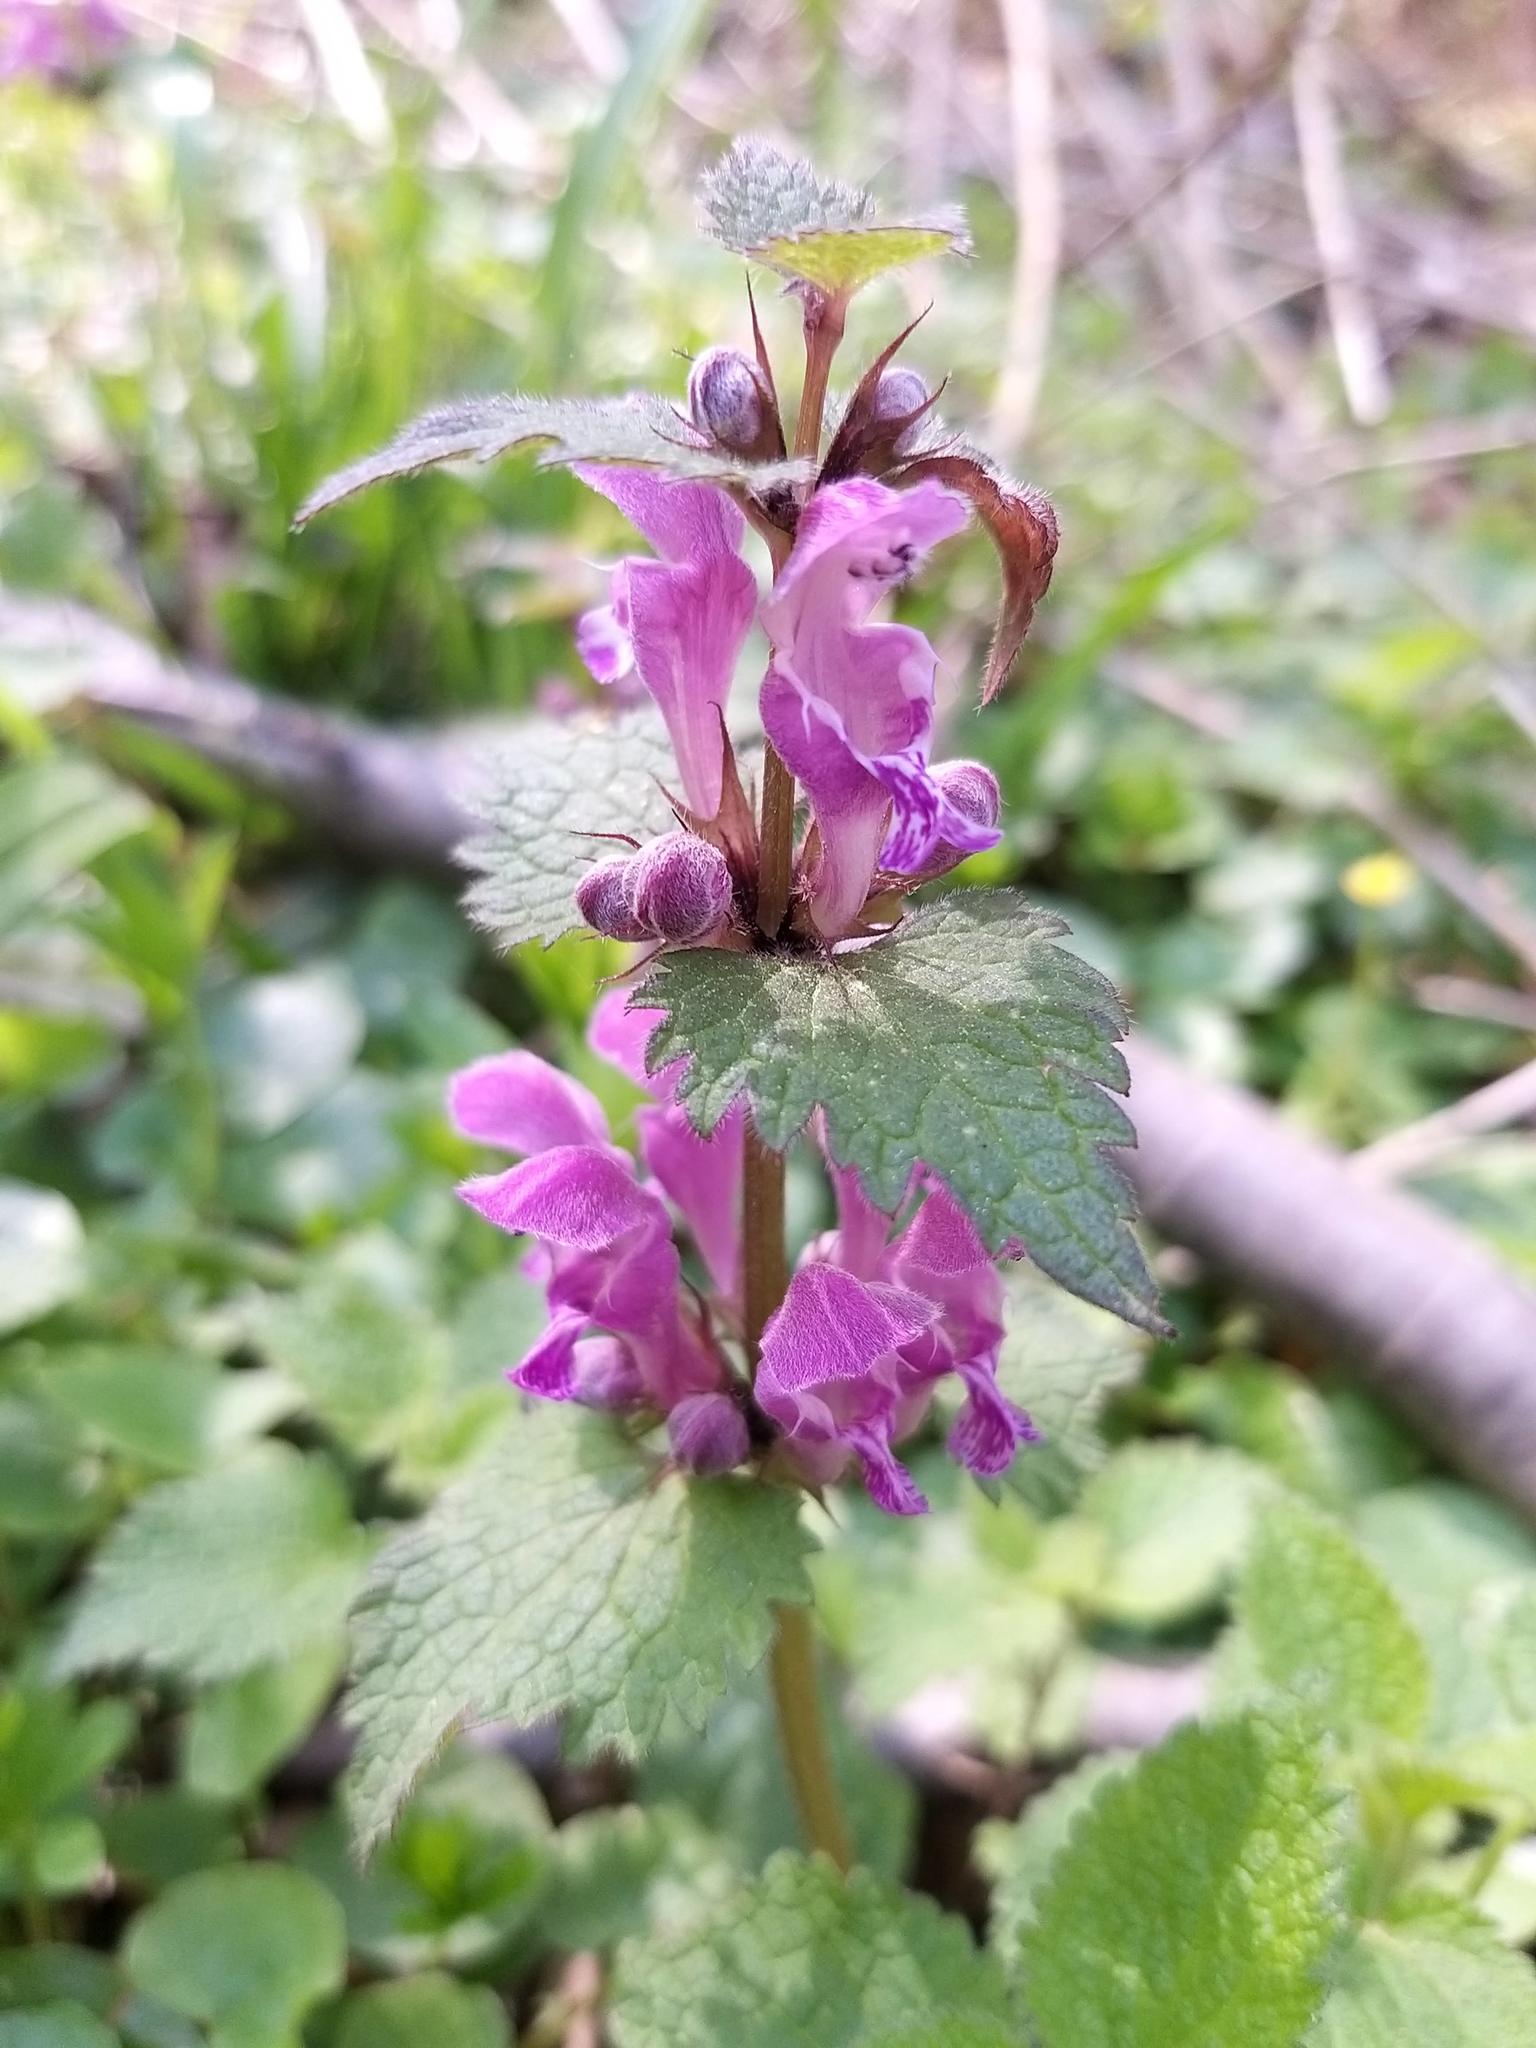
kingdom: Plantae
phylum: Tracheophyta
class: Magnoliopsida
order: Lamiales
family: Lamiaceae
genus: Lamium
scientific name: Lamium maculatum
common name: Spotted dead-nettle
